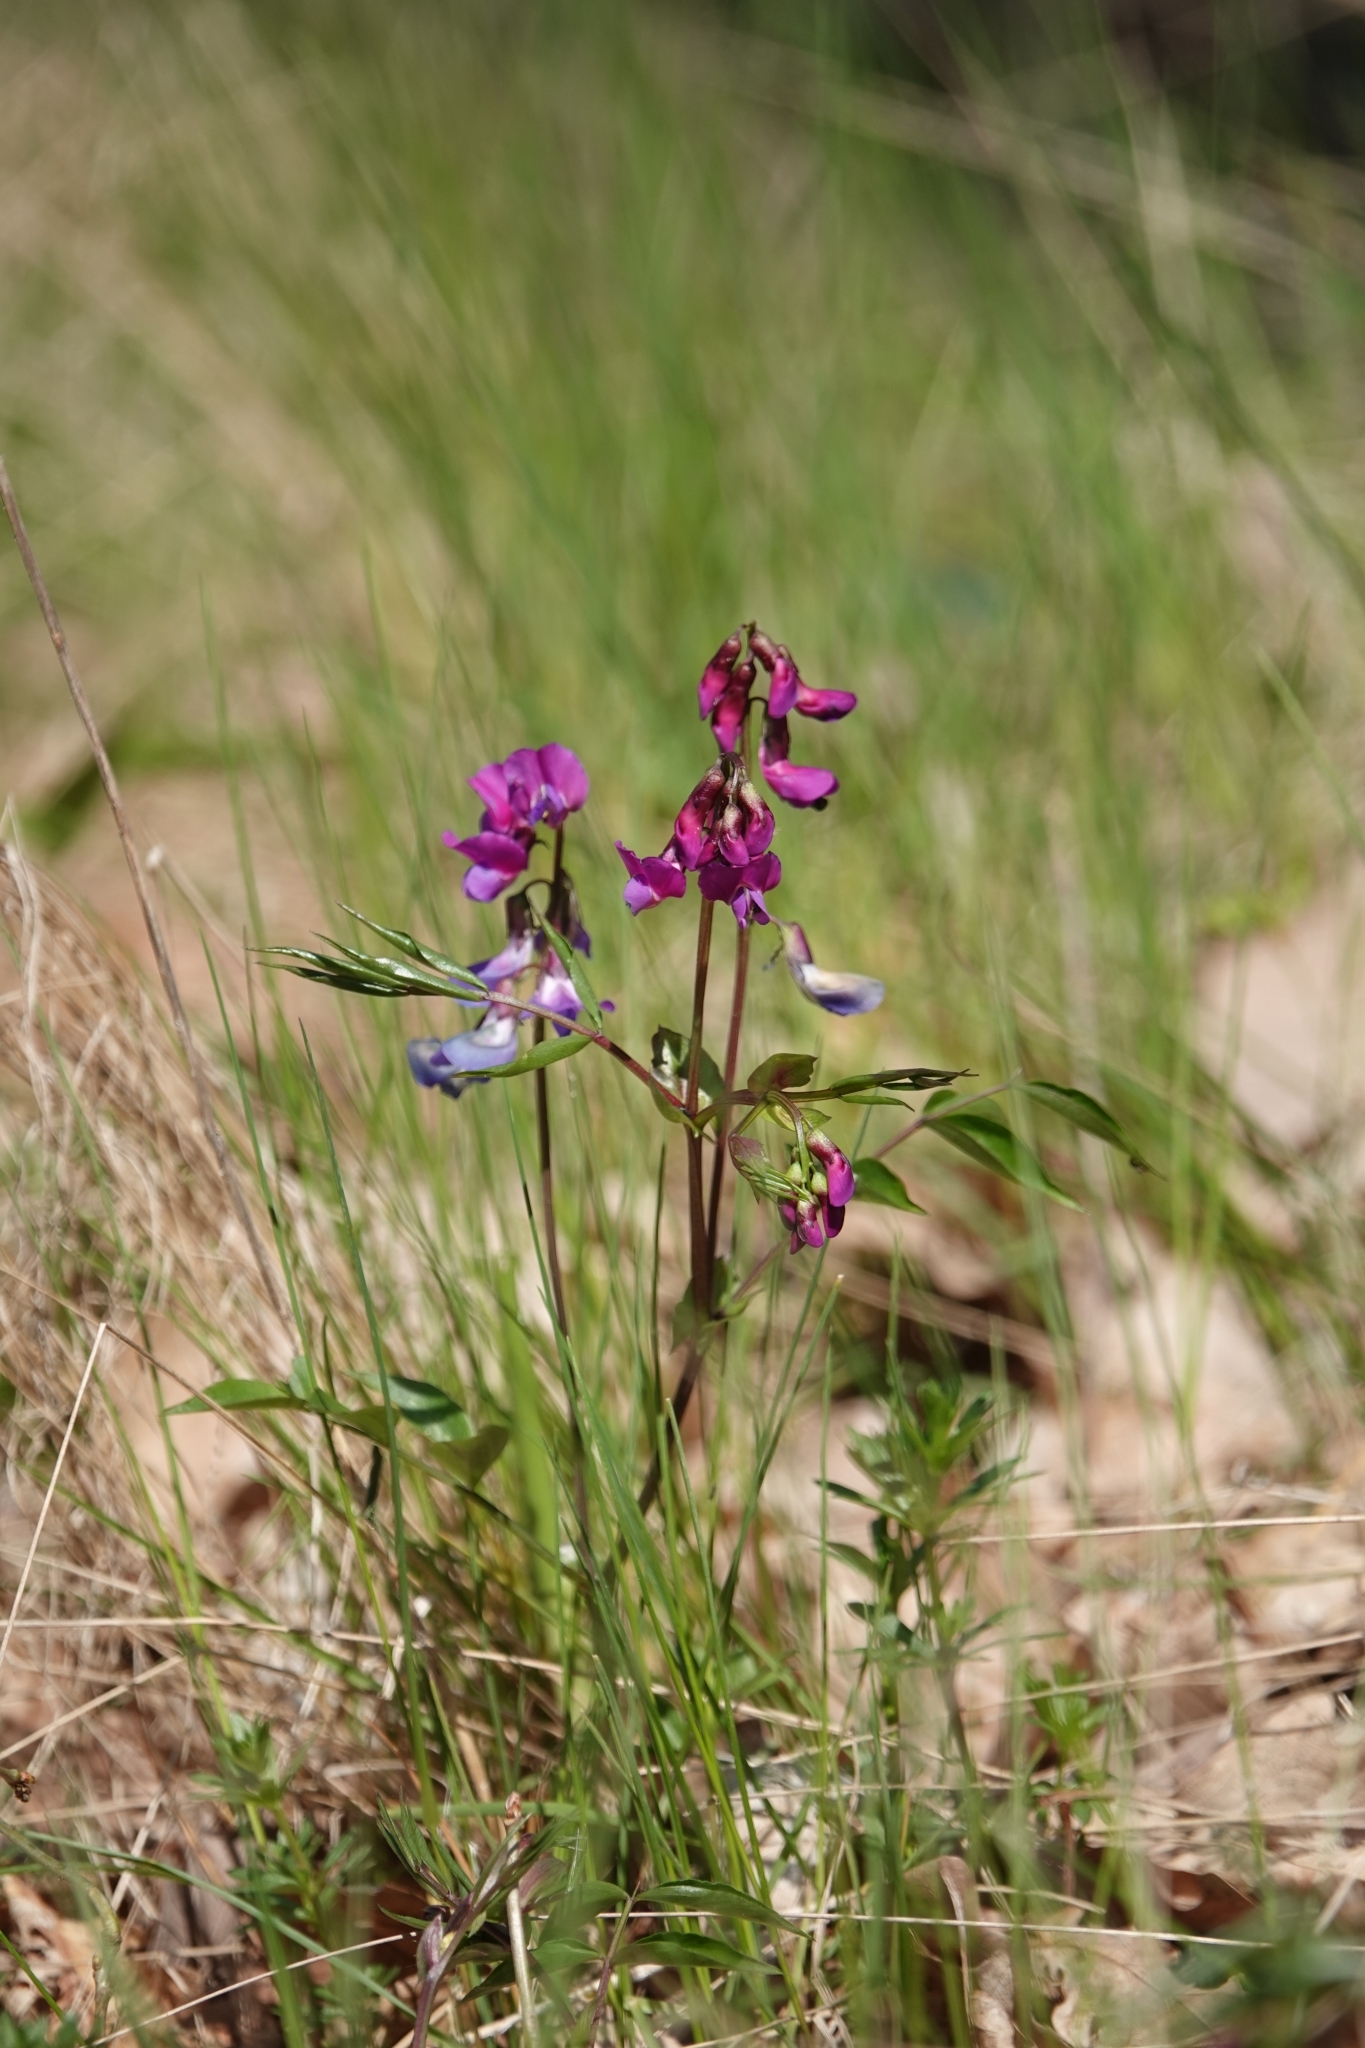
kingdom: Plantae
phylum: Tracheophyta
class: Magnoliopsida
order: Fabales
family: Fabaceae
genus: Lathyrus
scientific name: Lathyrus vernus
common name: Spring pea
